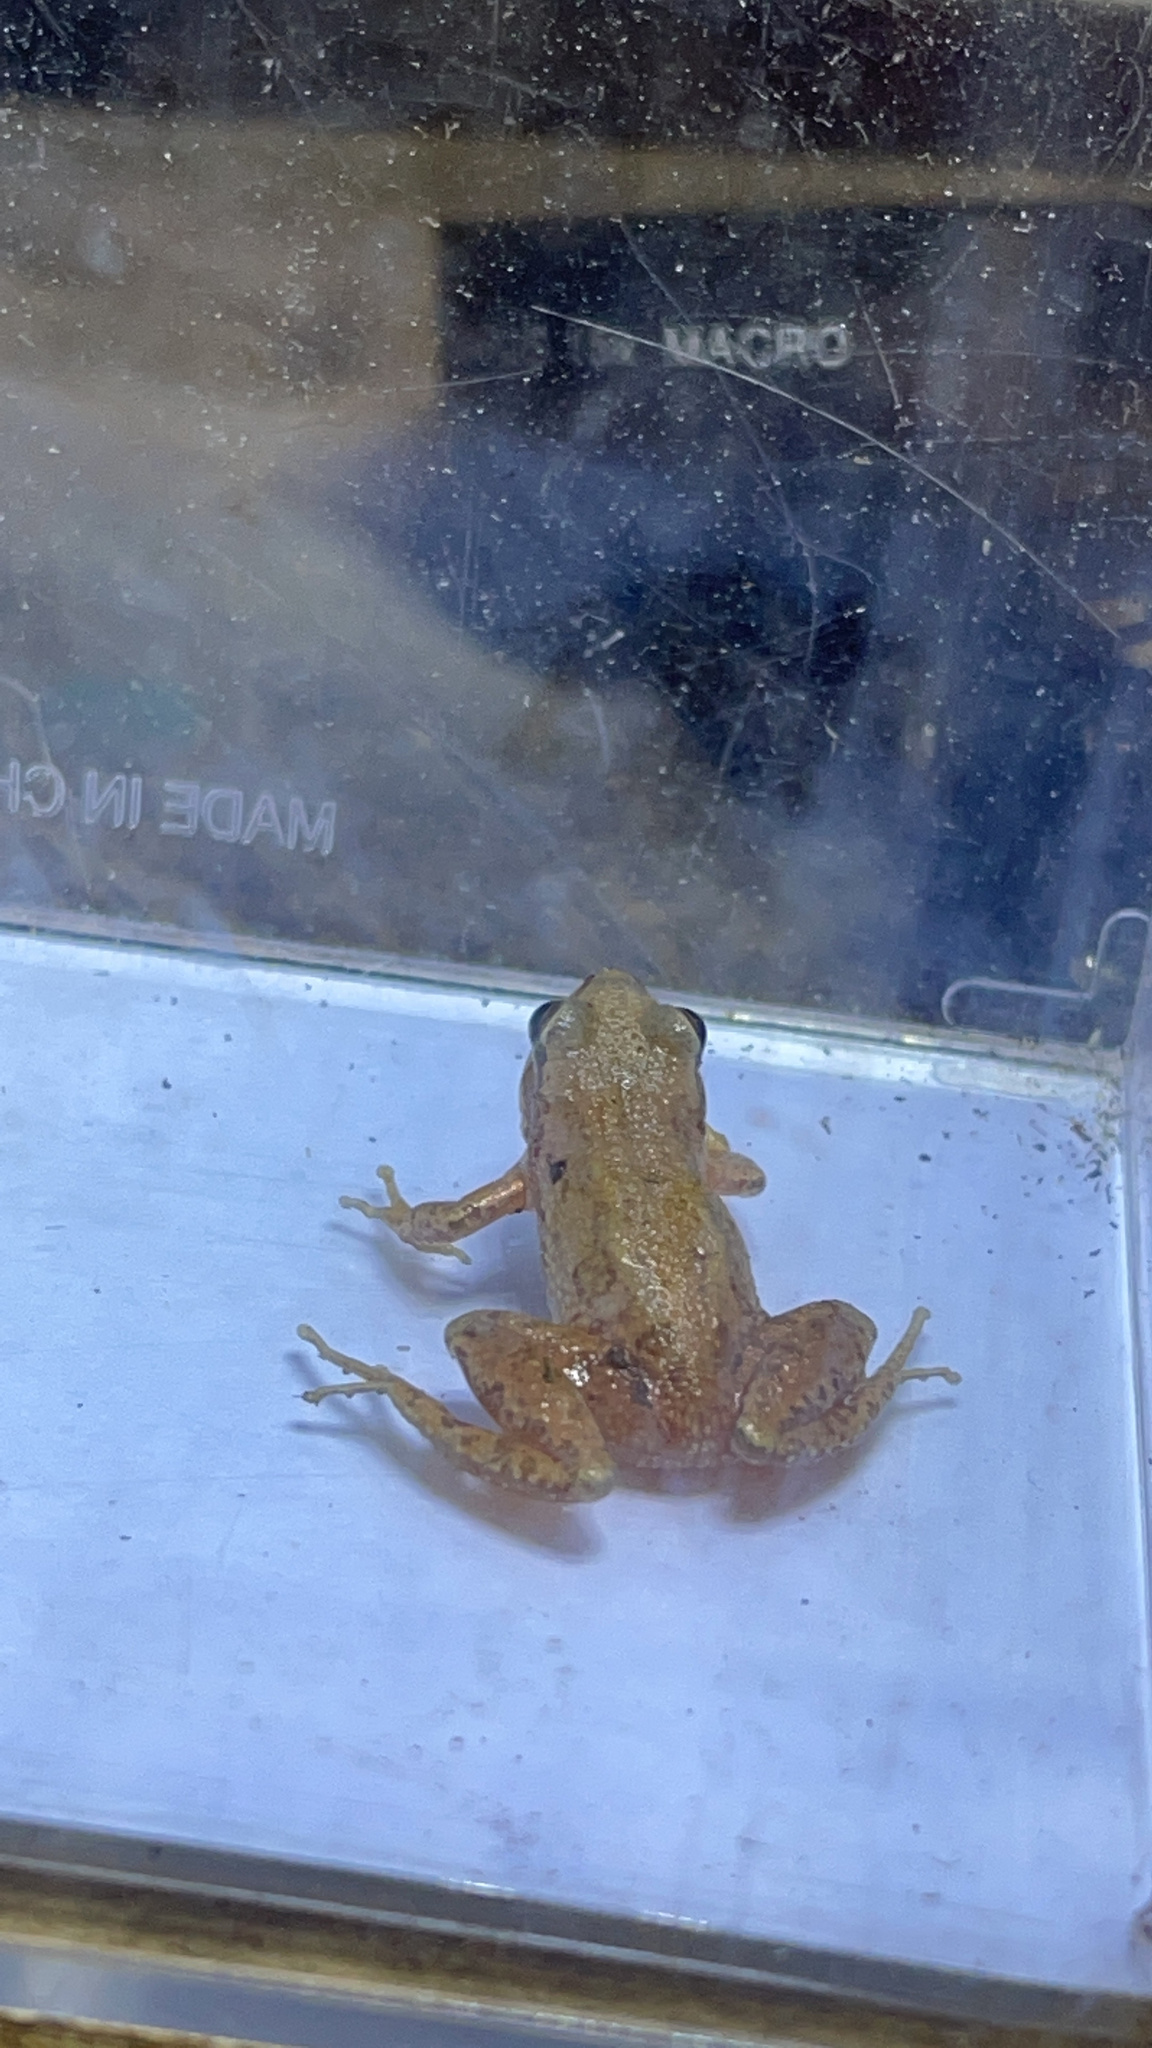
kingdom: Animalia
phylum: Chordata
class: Amphibia
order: Anura
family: Hylidae
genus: Pseudacris
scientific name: Pseudacris feriarum
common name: Upland chorus frog
